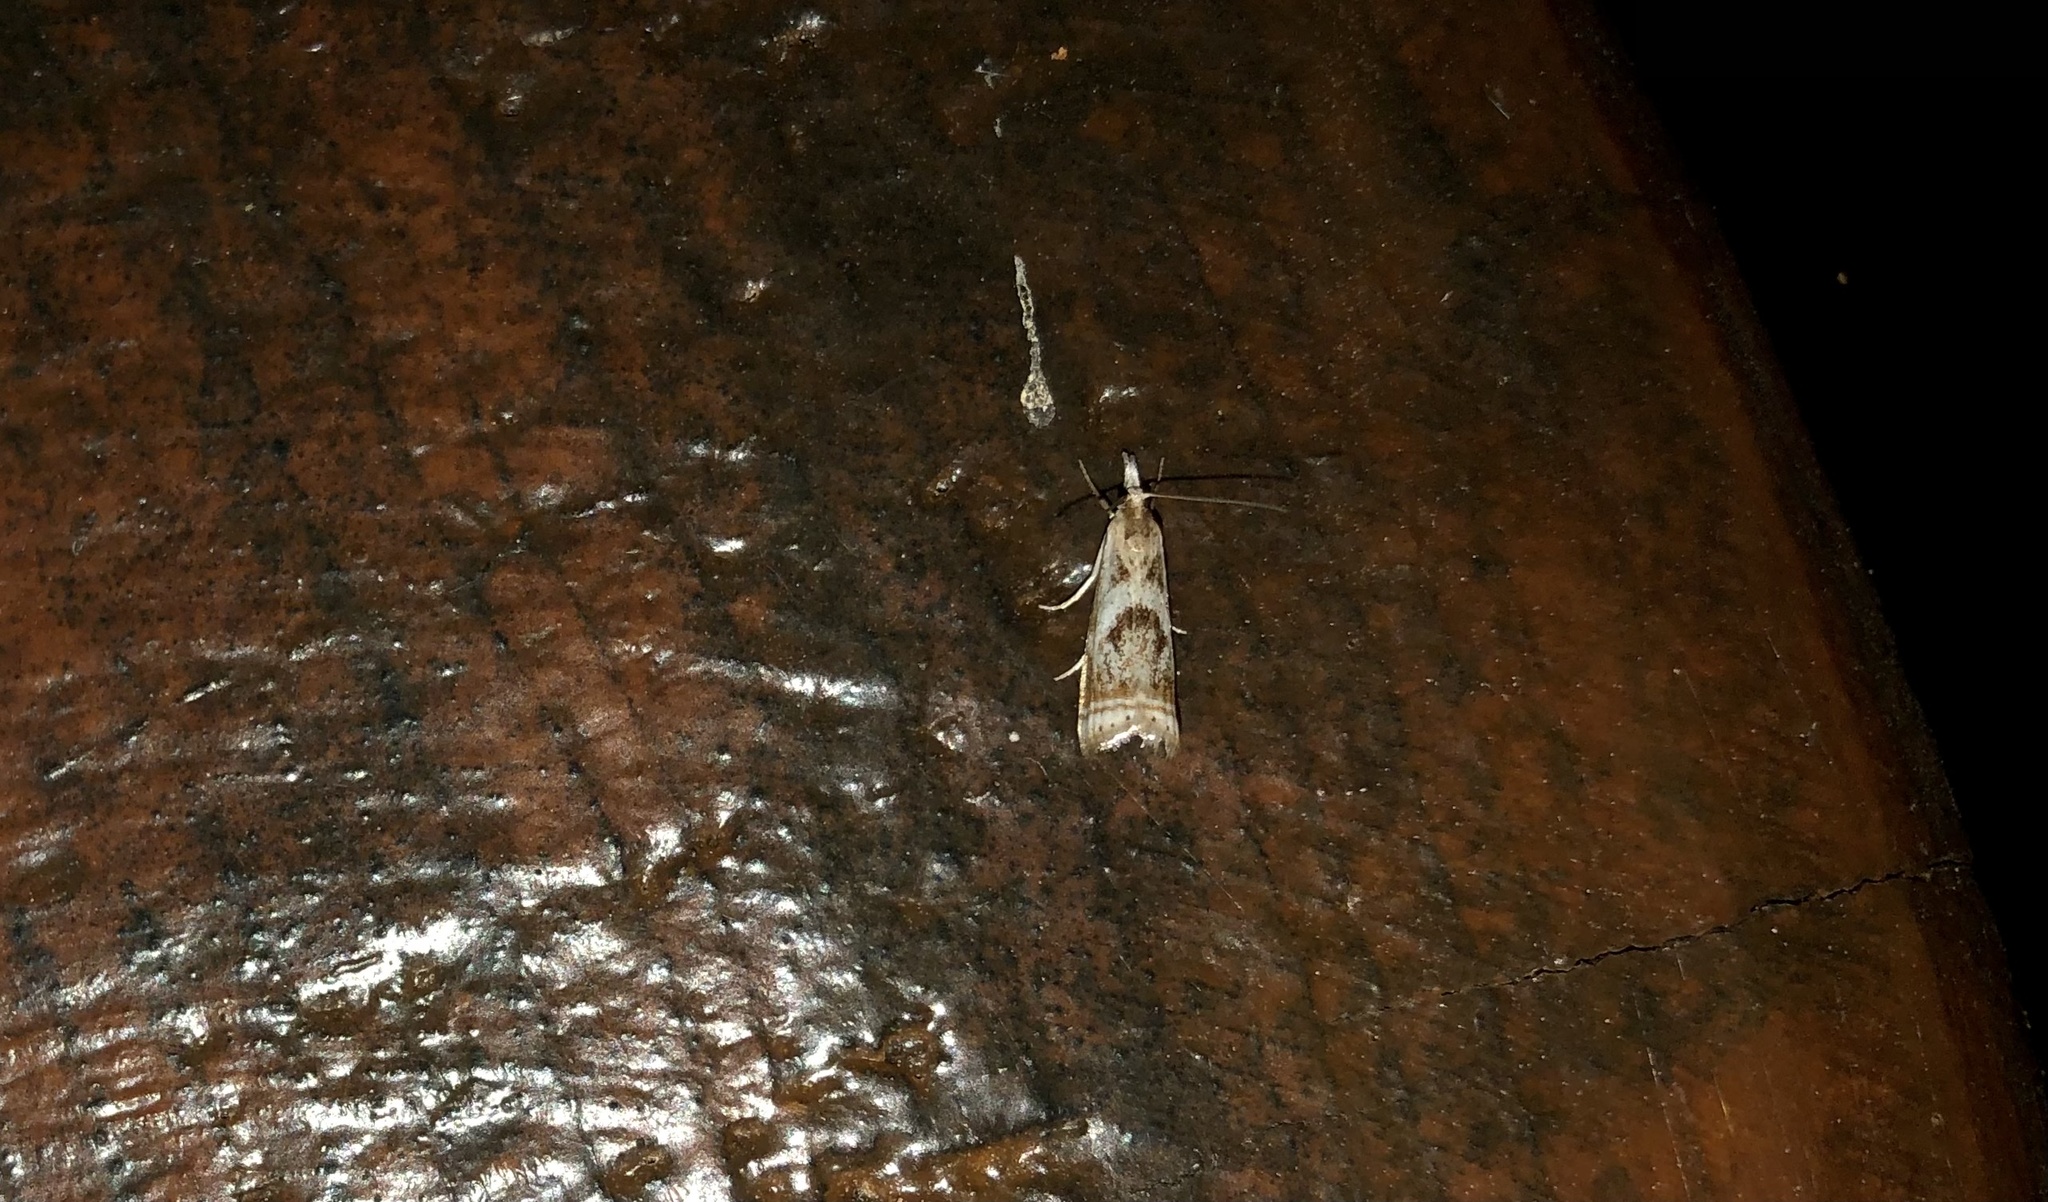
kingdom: Animalia
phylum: Arthropoda
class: Insecta
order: Lepidoptera
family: Crambidae
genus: Microcrambus
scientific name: Microcrambus elegans
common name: Elegant grass-veneer
